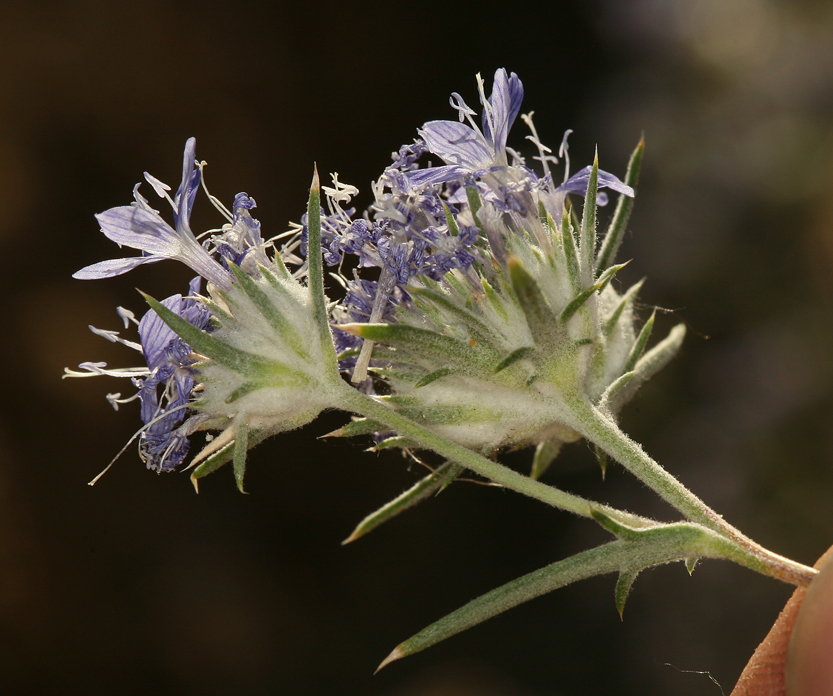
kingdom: Plantae
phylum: Tracheophyta
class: Magnoliopsida
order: Ericales
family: Polemoniaceae
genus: Eriastrum
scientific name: Eriastrum densifolium
